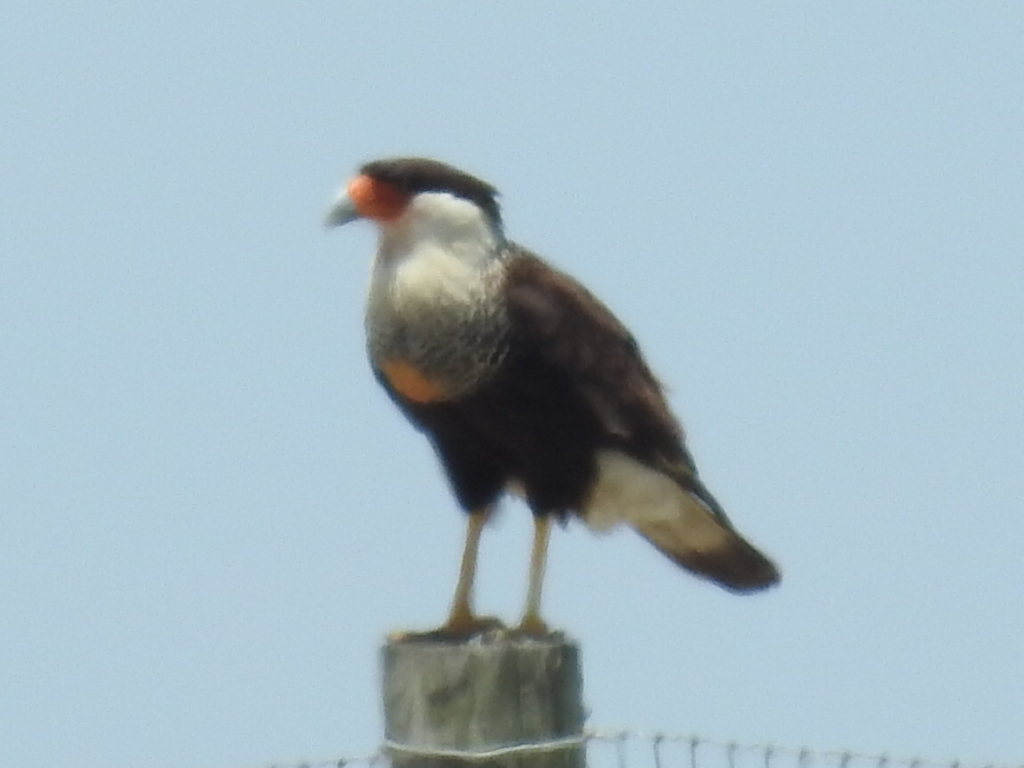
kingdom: Animalia
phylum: Chordata
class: Aves
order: Falconiformes
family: Falconidae
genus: Caracara
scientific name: Caracara plancus
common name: Southern caracara
